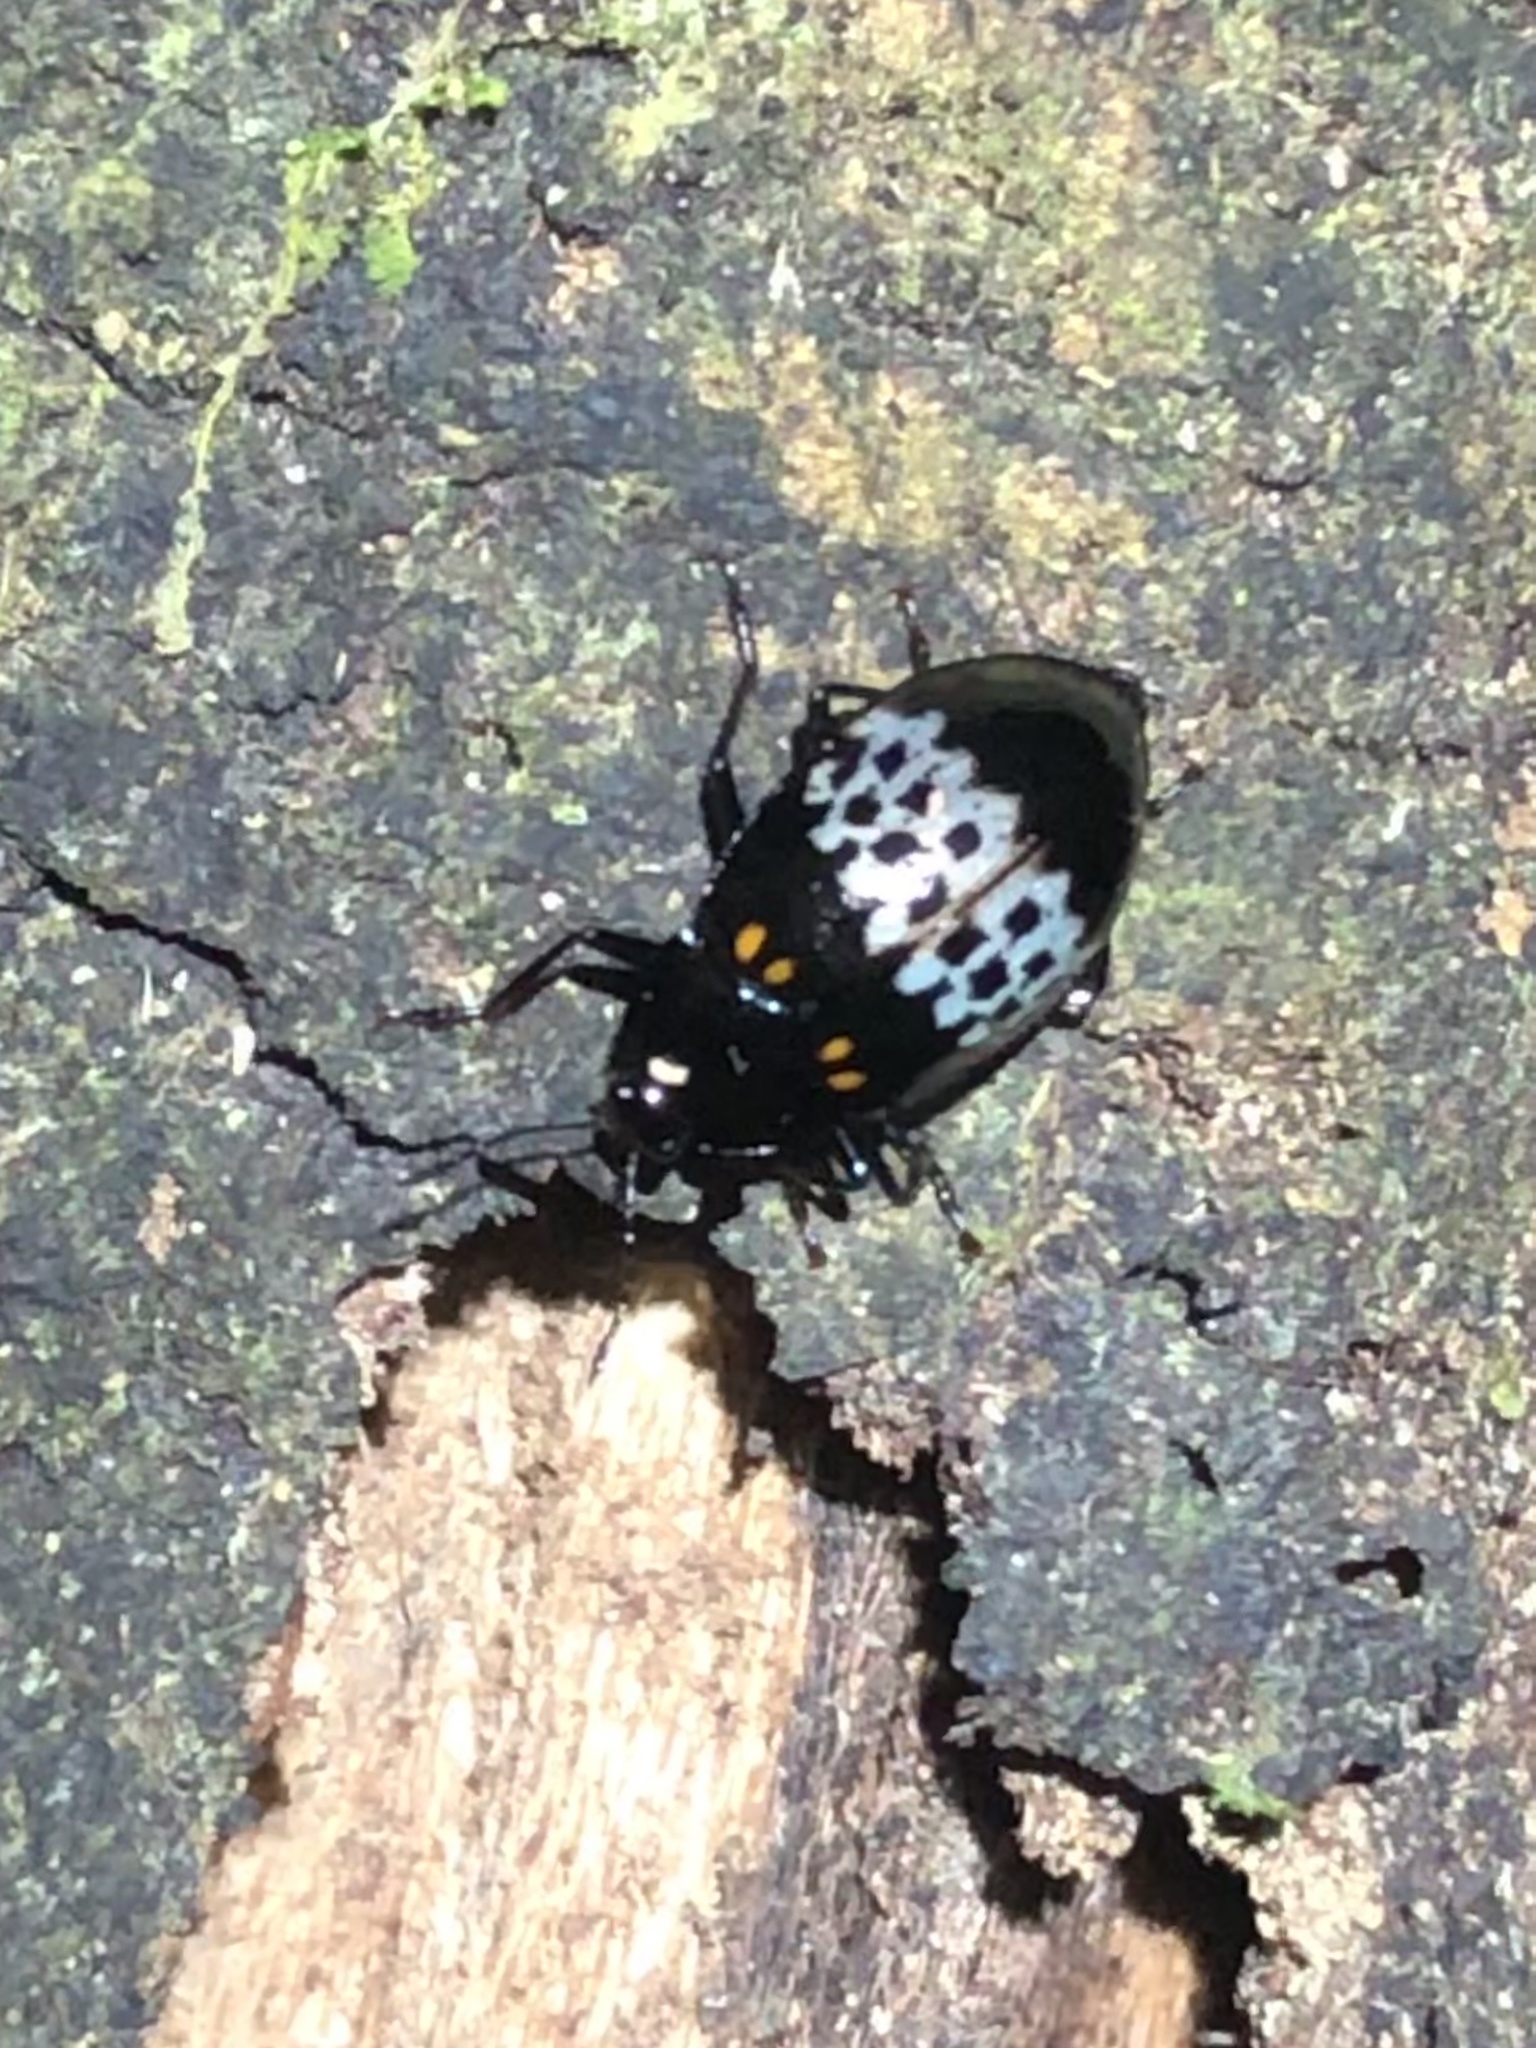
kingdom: Animalia
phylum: Arthropoda
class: Insecta
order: Coleoptera
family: Erotylidae
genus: Prepopharus
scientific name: Prepopharus
